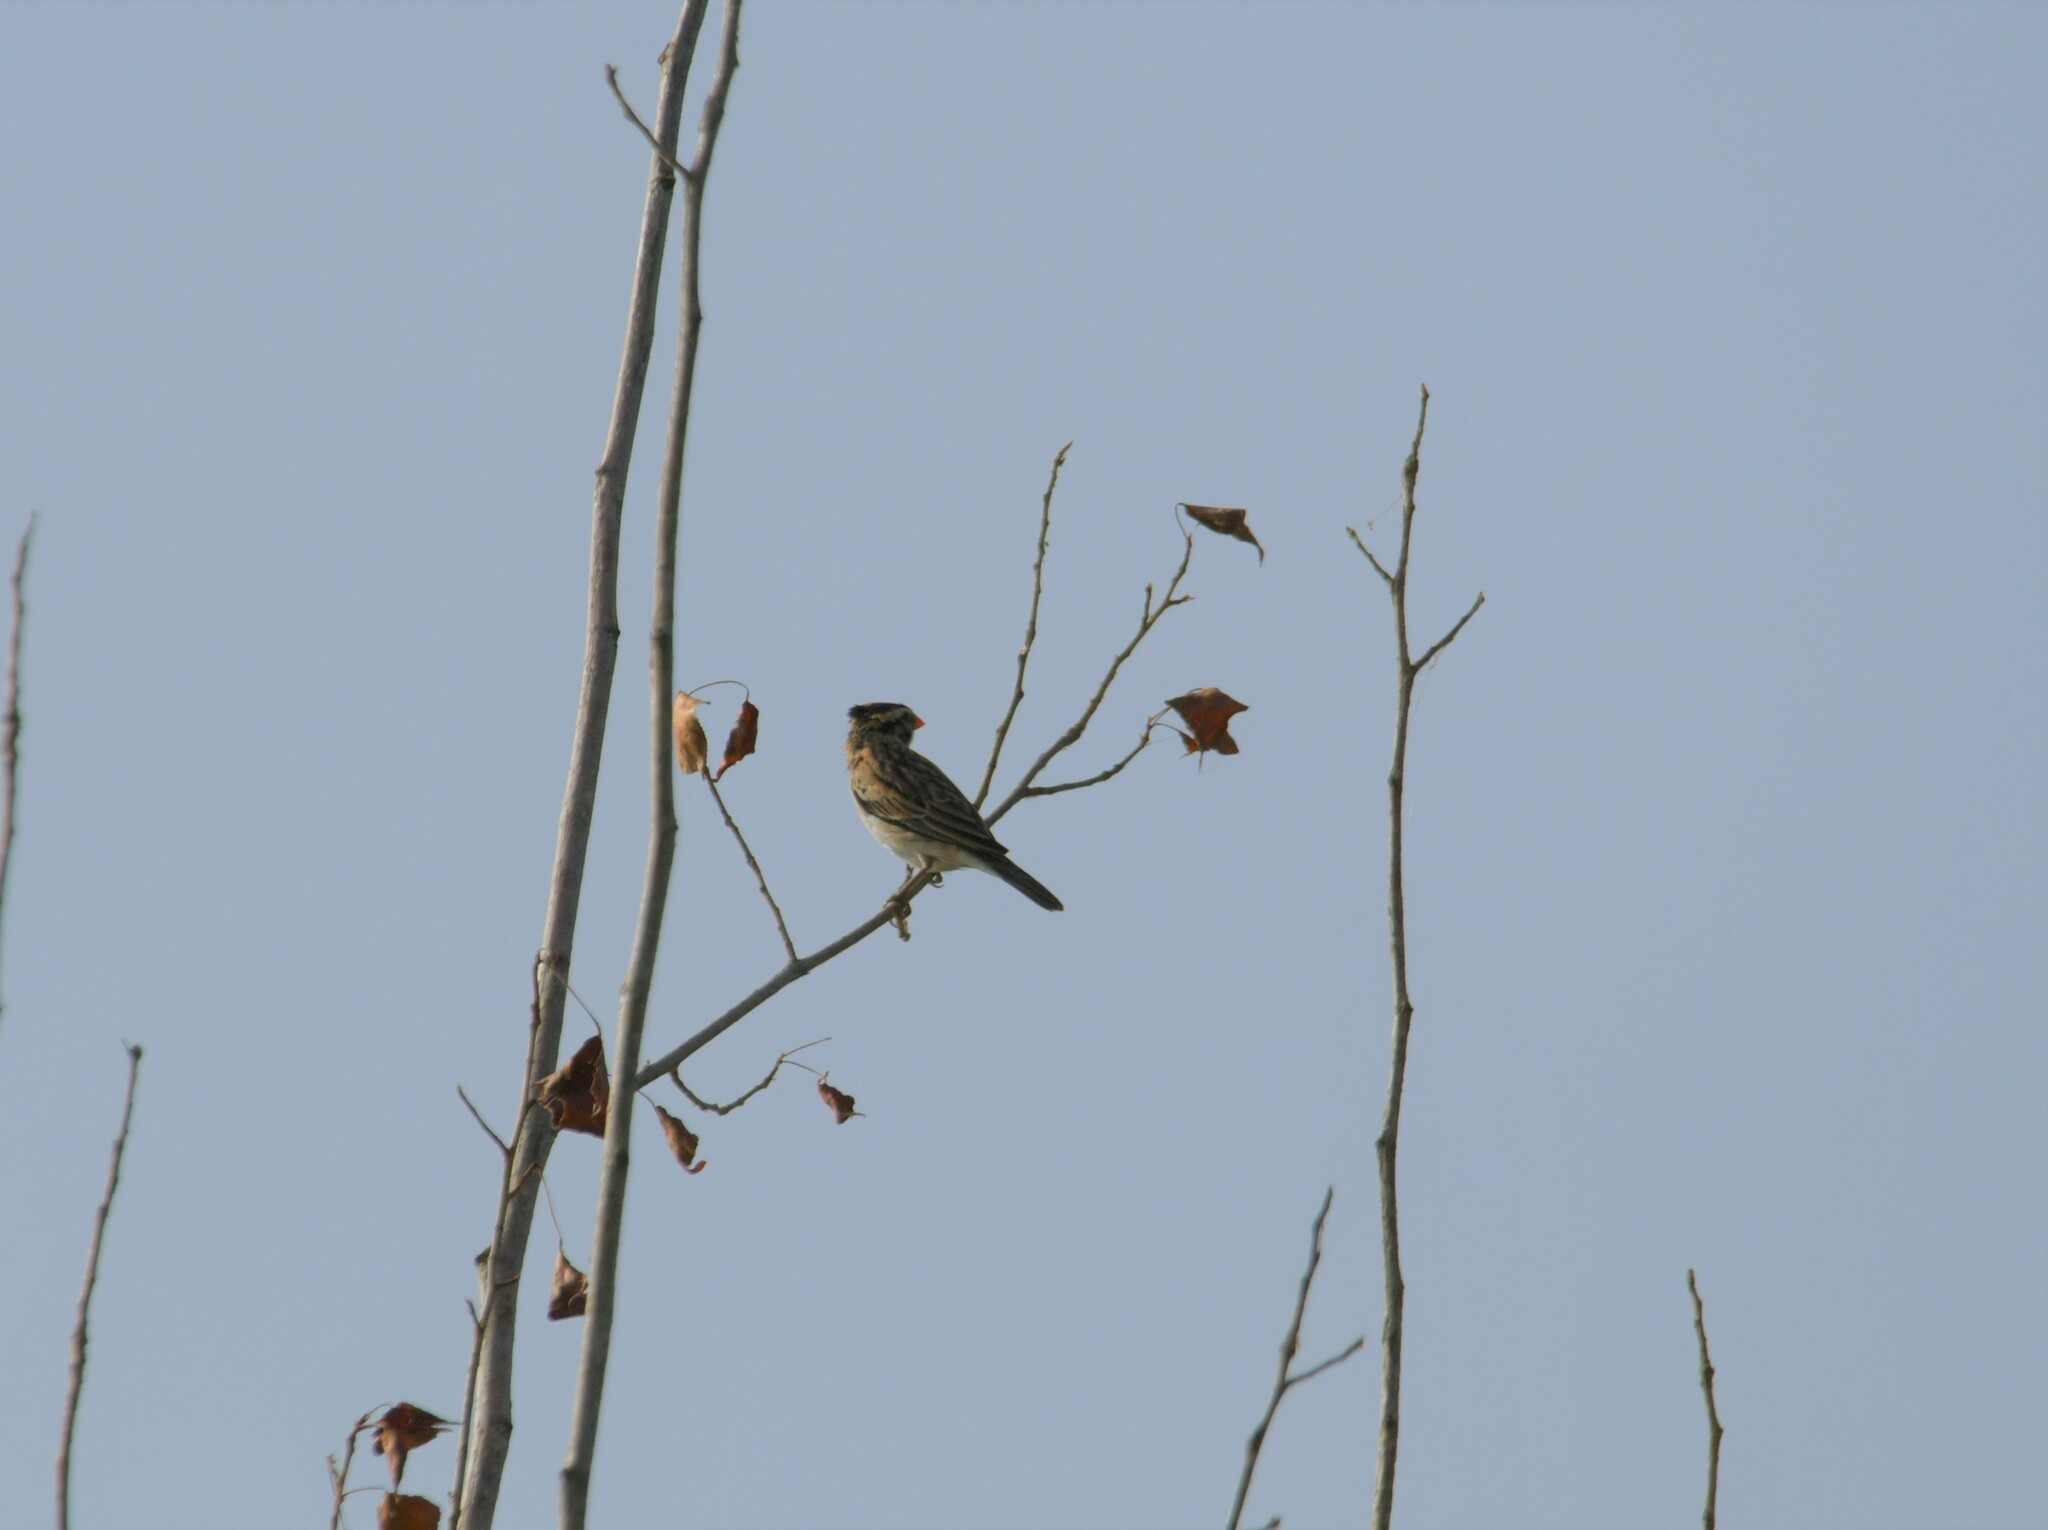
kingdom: Animalia
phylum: Chordata
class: Aves
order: Passeriformes
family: Viduidae
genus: Vidua
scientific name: Vidua macroura
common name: Pin-tailed whydah
